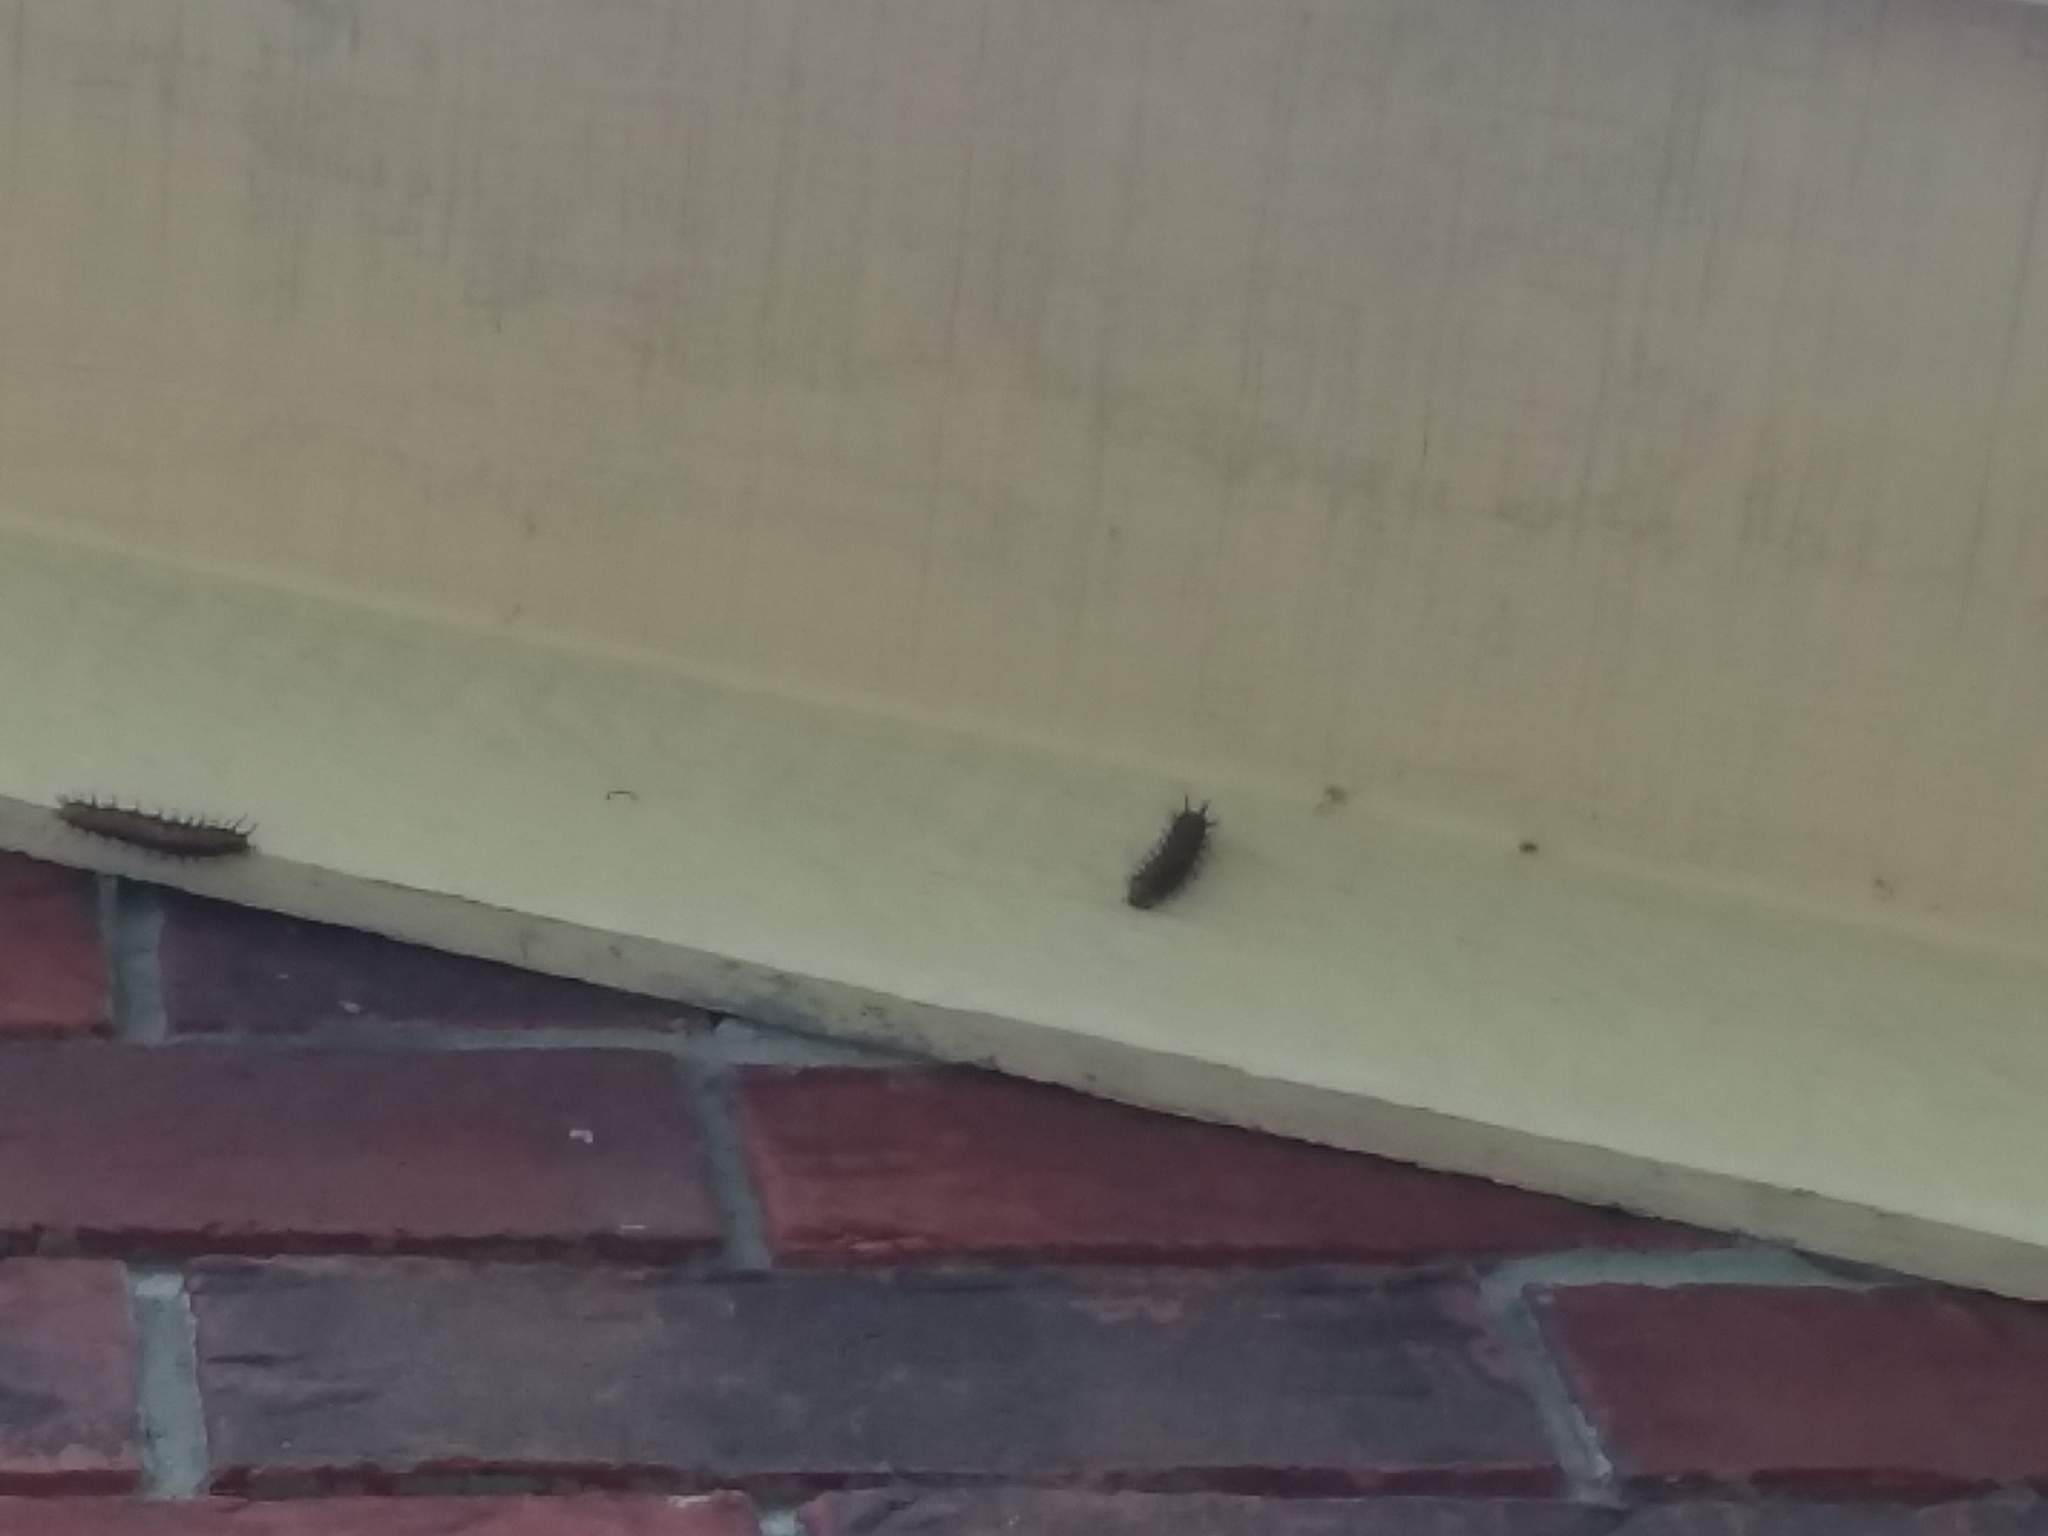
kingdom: Animalia
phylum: Arthropoda
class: Insecta
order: Lepidoptera
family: Nymphalidae
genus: Dione
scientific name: Dione vanillae
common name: Gulf fritillary
